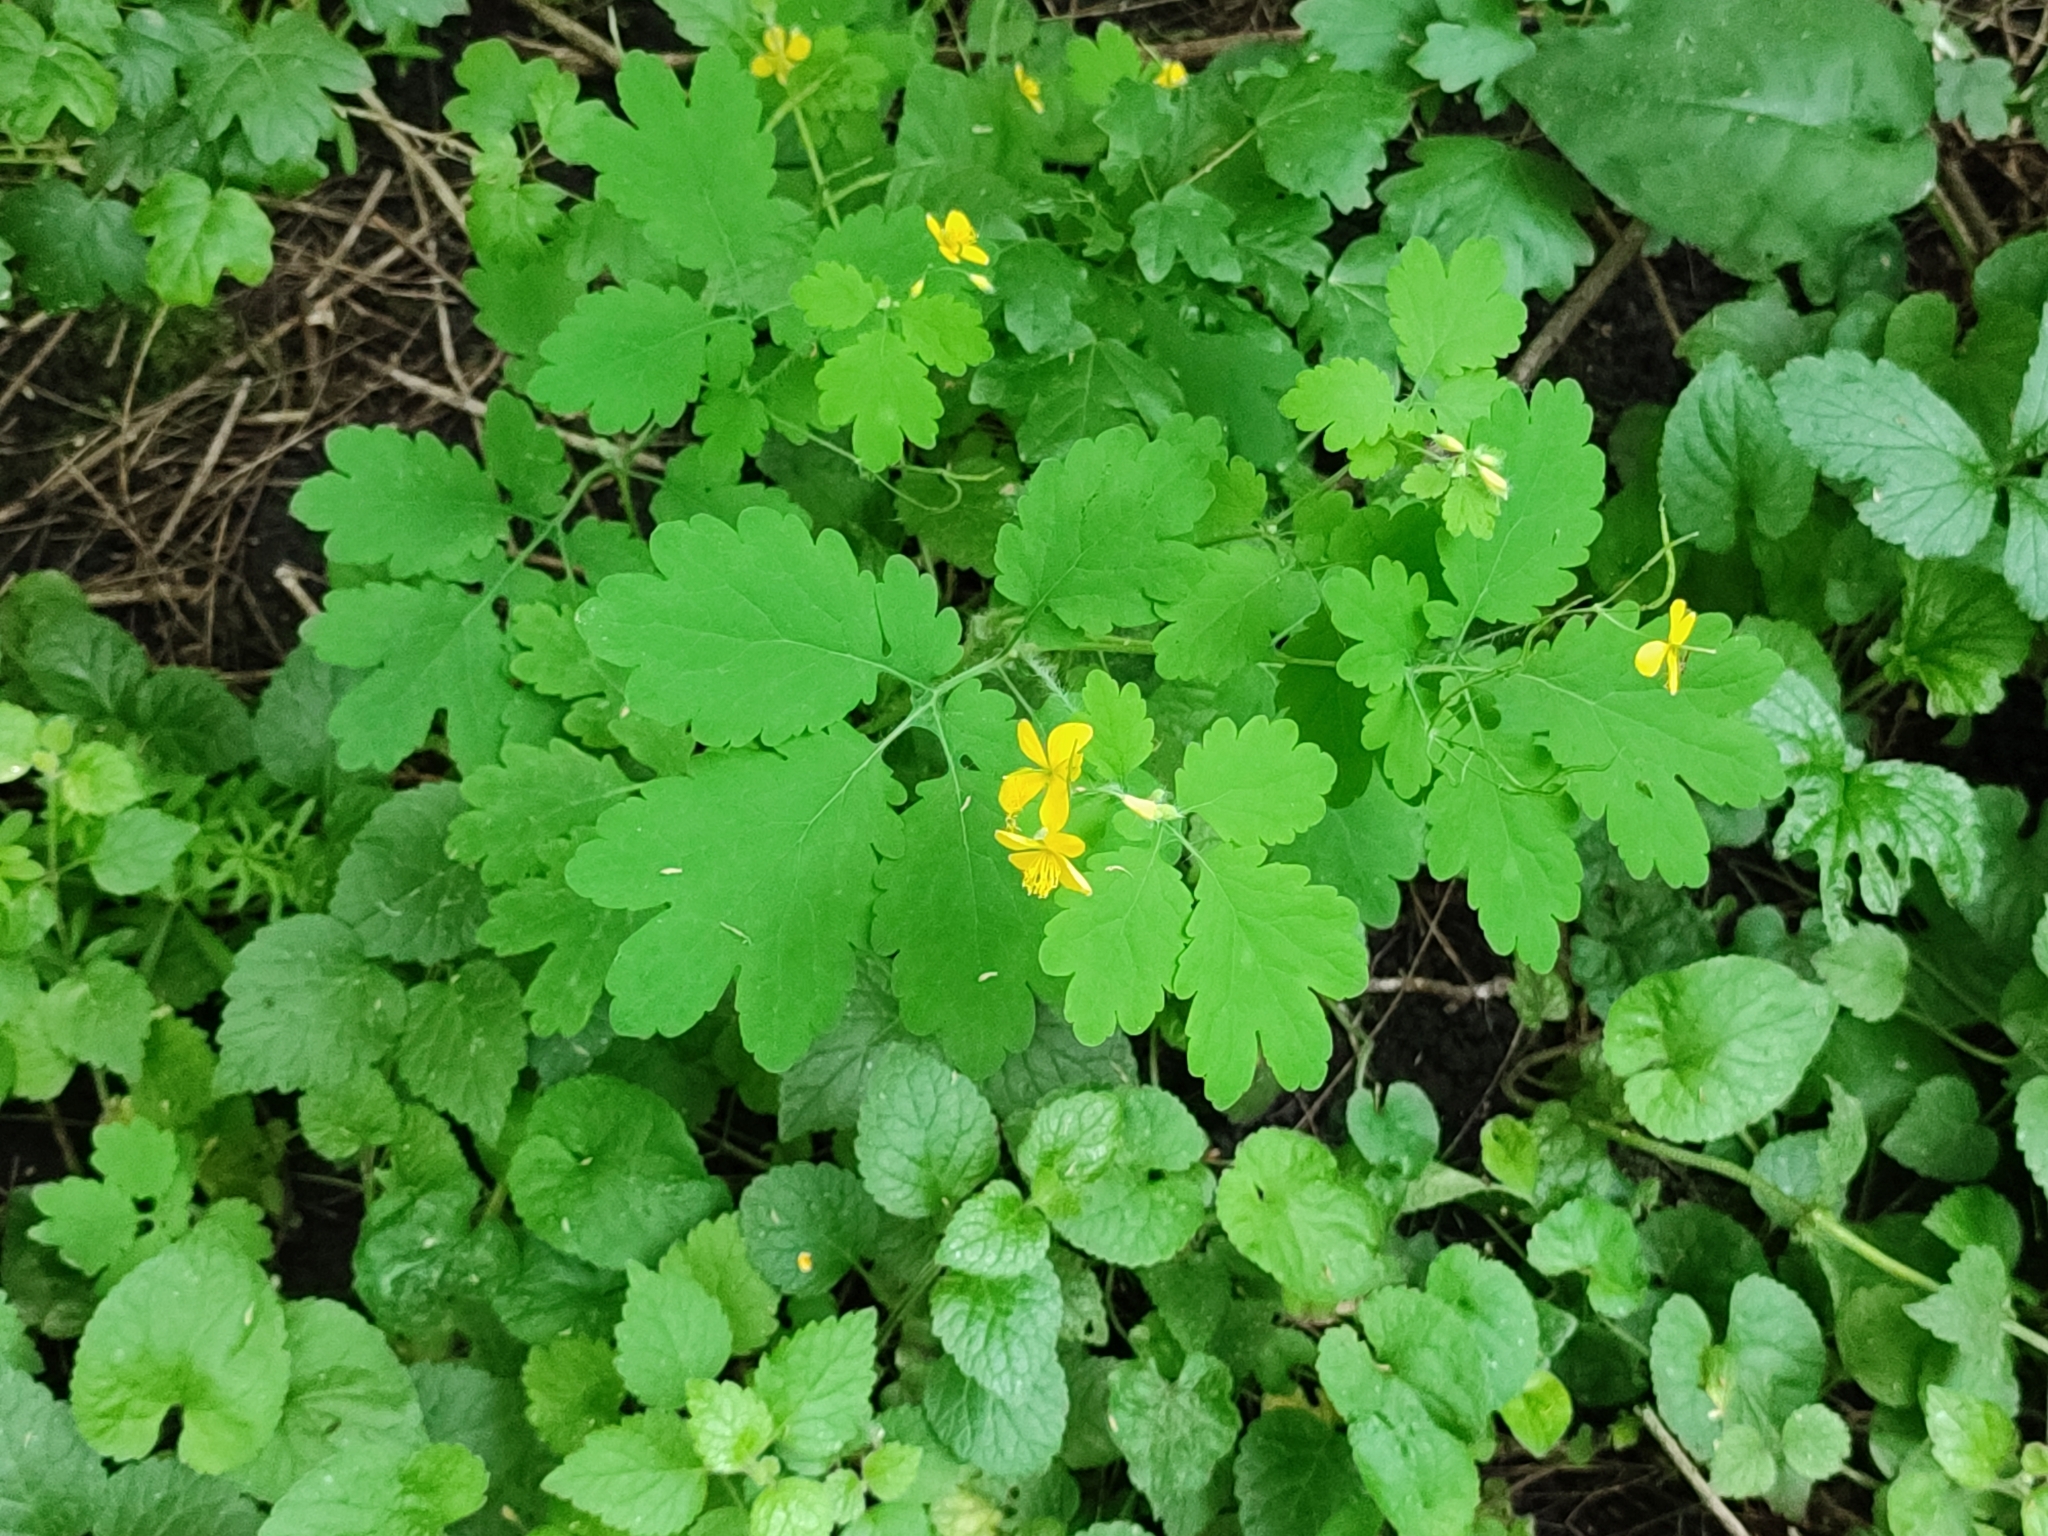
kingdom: Plantae
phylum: Tracheophyta
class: Magnoliopsida
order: Ranunculales
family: Papaveraceae
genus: Chelidonium
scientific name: Chelidonium majus
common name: Greater celandine
